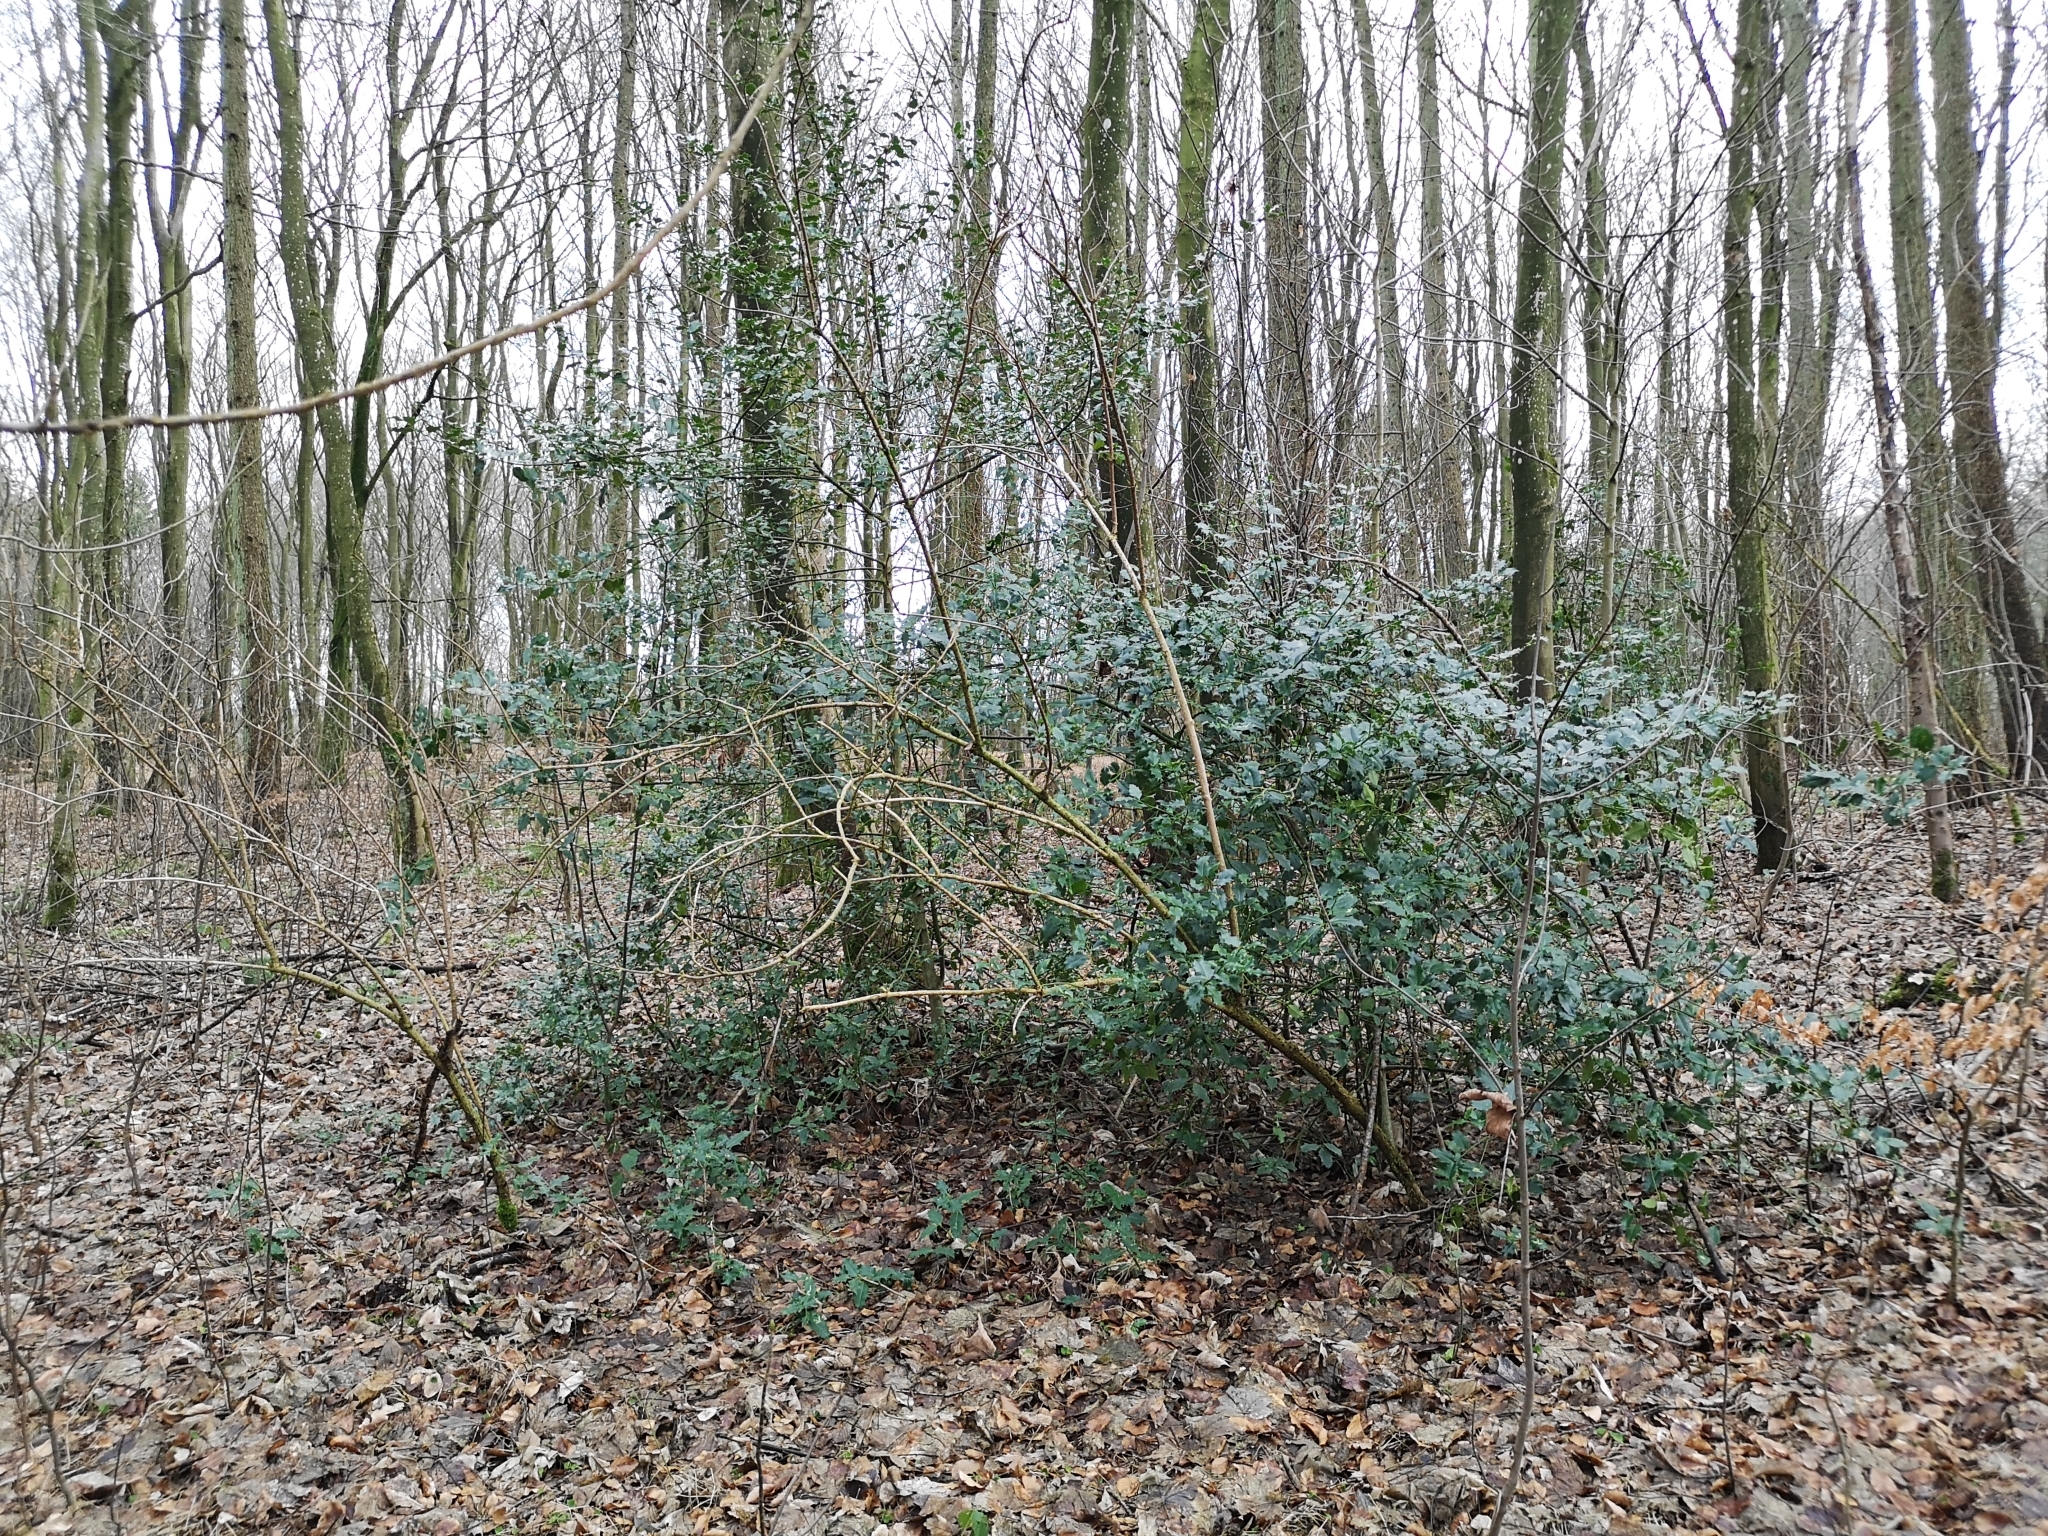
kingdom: Plantae
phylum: Tracheophyta
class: Magnoliopsida
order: Aquifoliales
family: Aquifoliaceae
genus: Ilex
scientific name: Ilex aquifolium
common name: English holly
